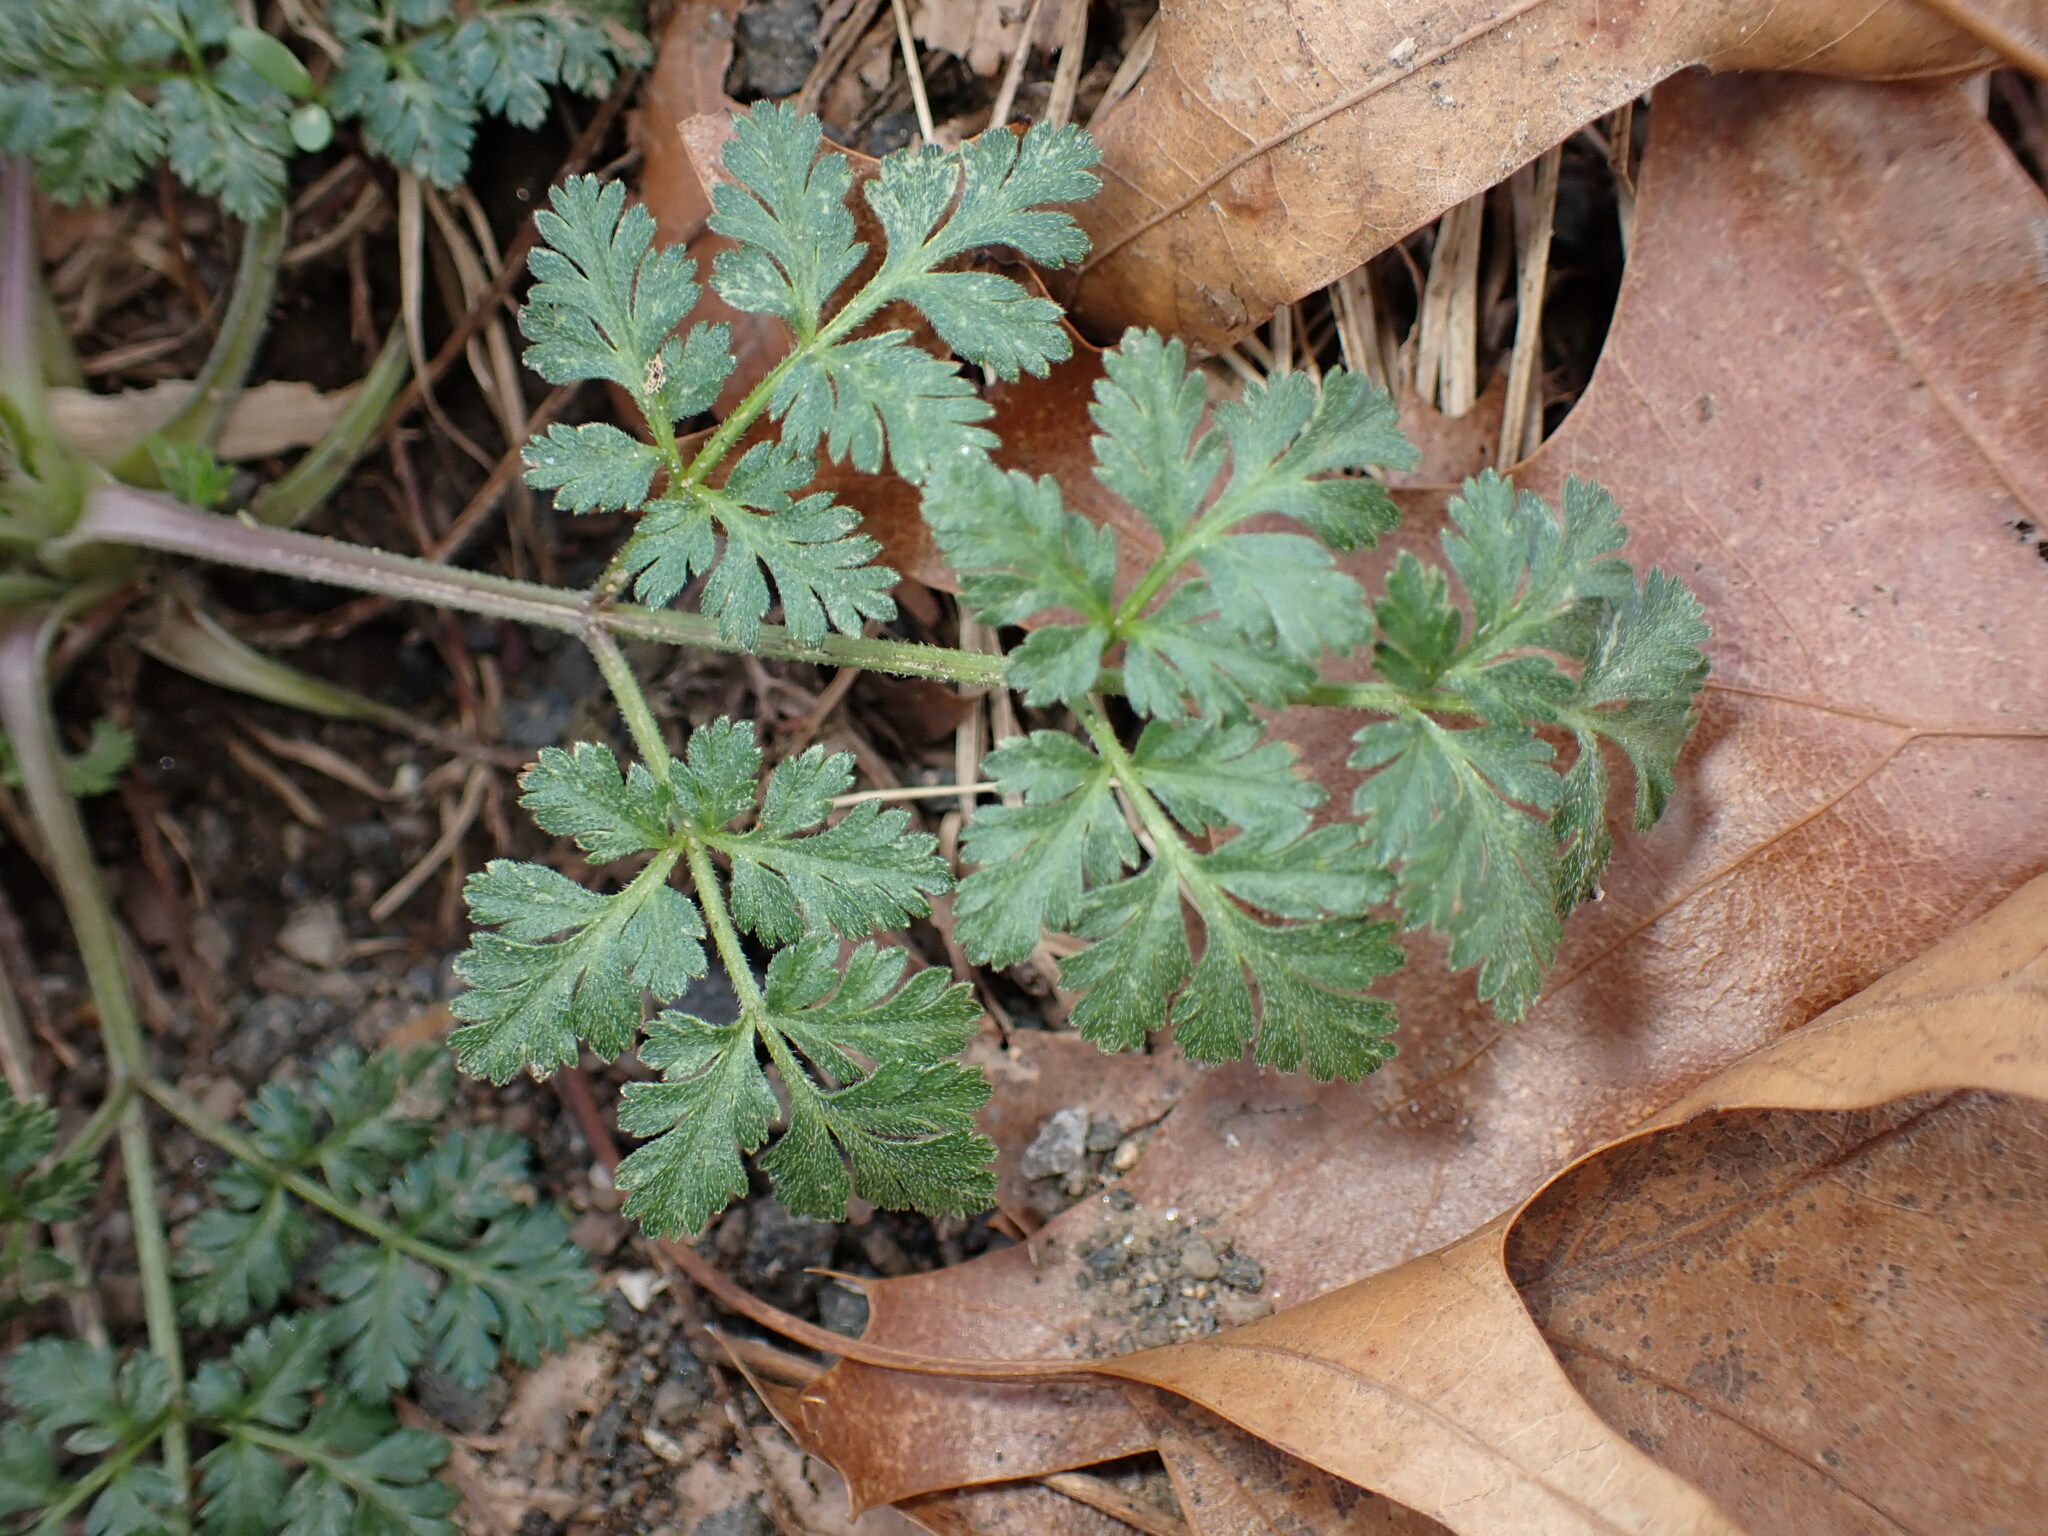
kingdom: Plantae
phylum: Tracheophyta
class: Magnoliopsida
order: Apiales
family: Apiaceae
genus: Anthriscus
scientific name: Anthriscus sylvestris
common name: Cow parsley
